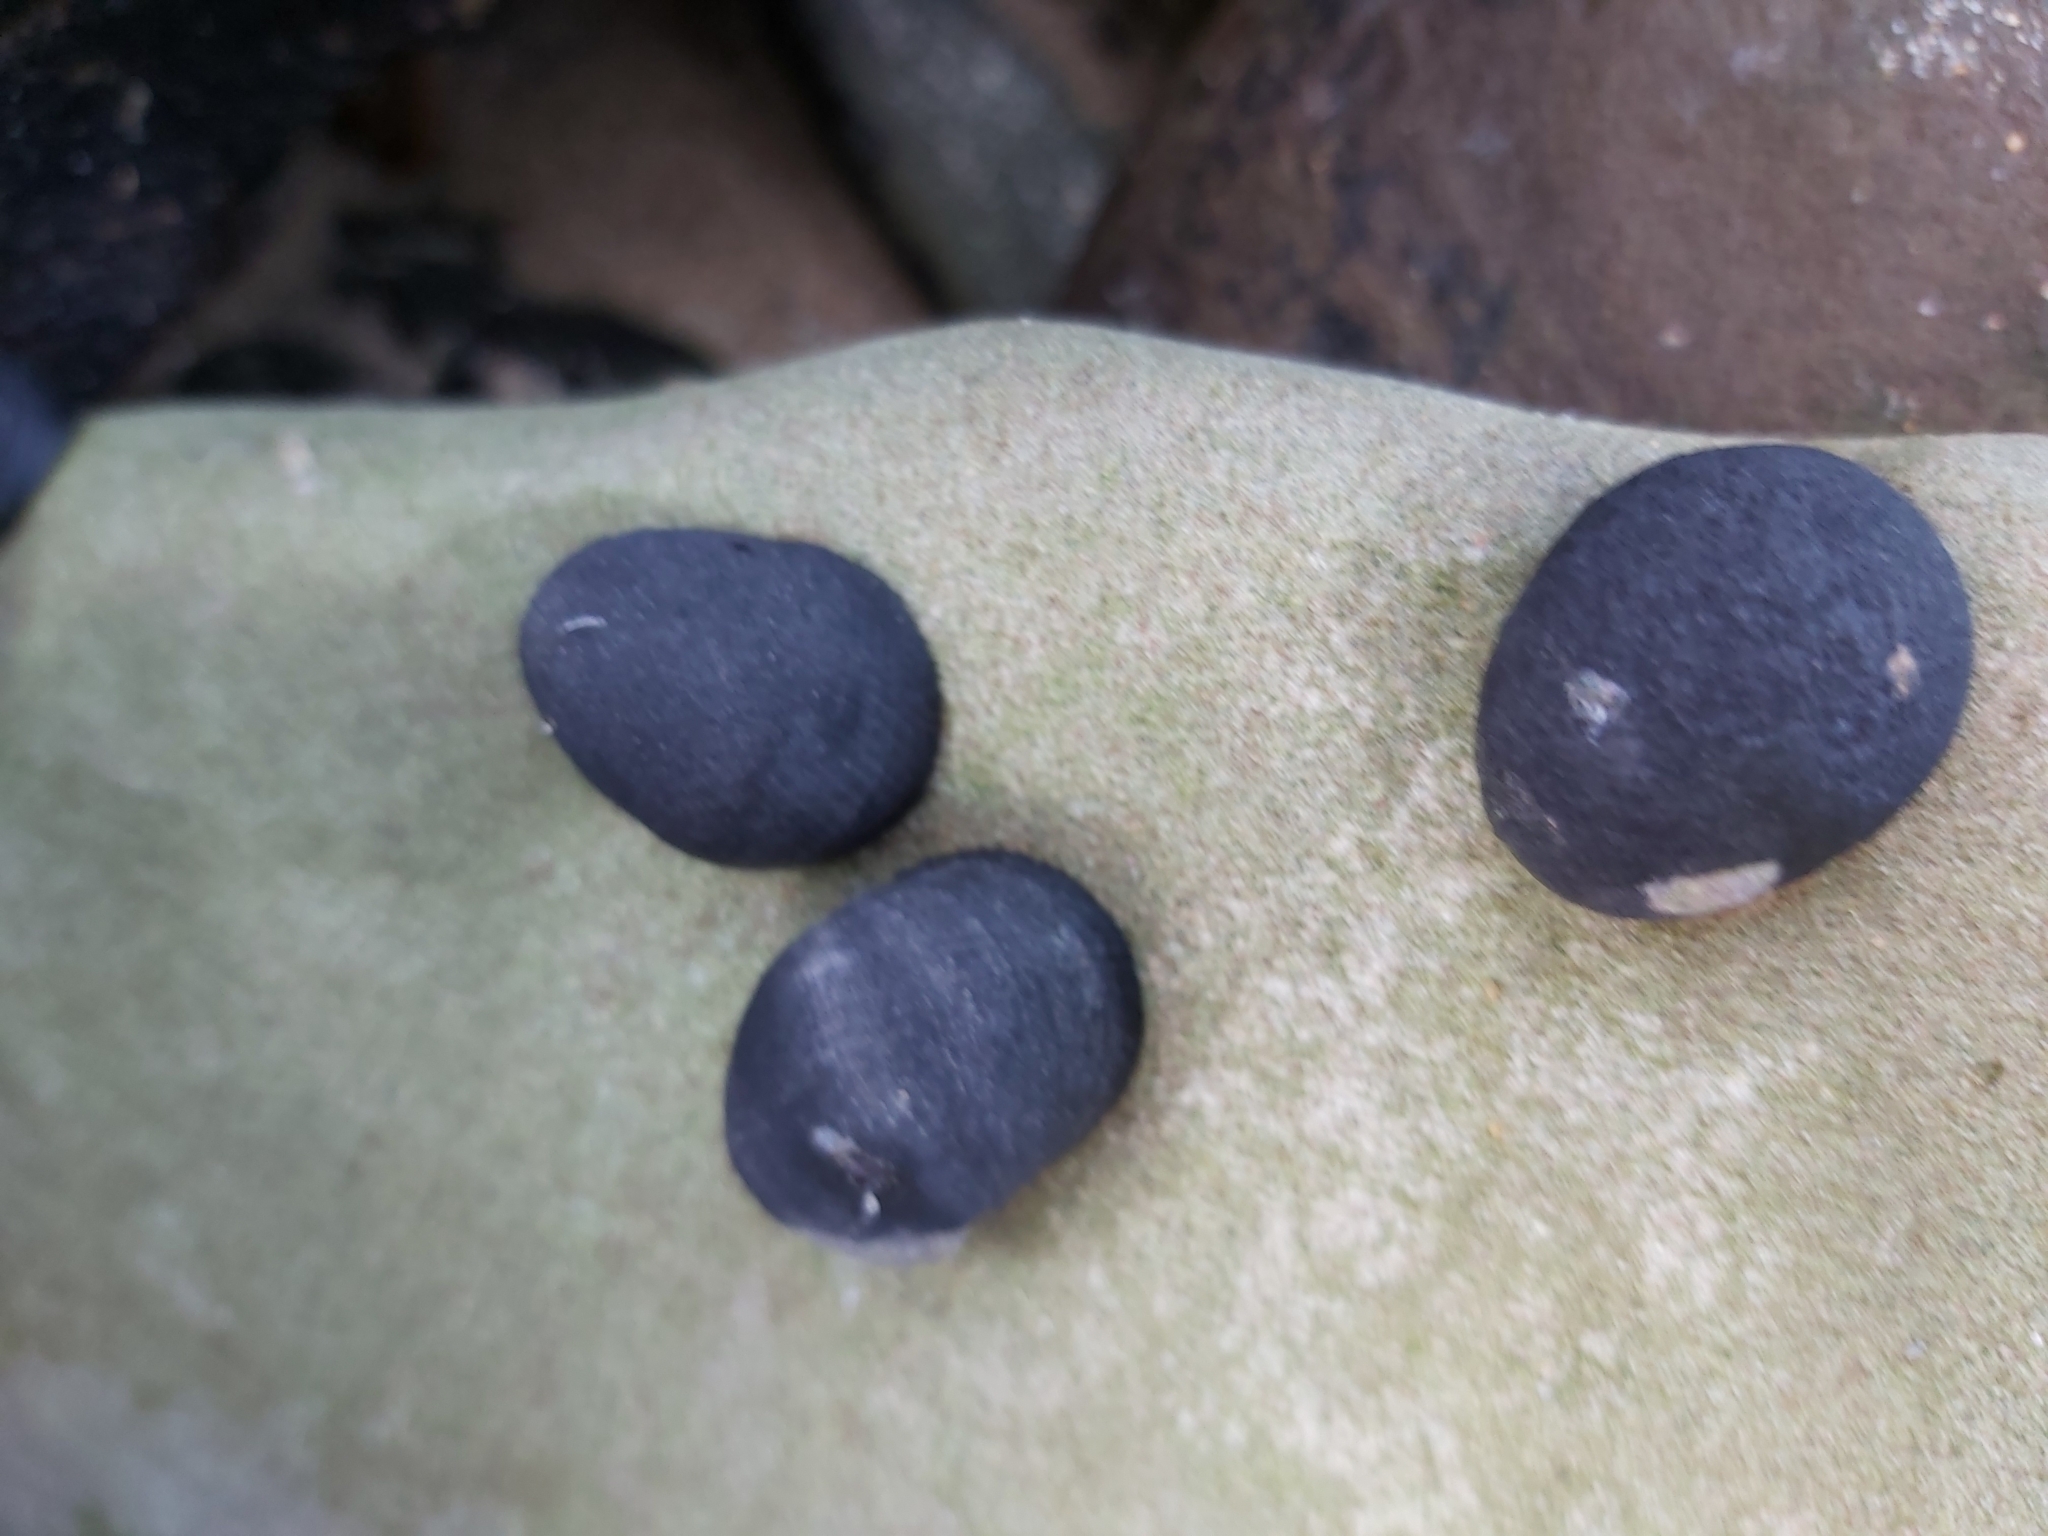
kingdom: Animalia
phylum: Mollusca
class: Gastropoda
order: Cycloneritida
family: Neritidae
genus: Nerita
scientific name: Nerita melanotragus
